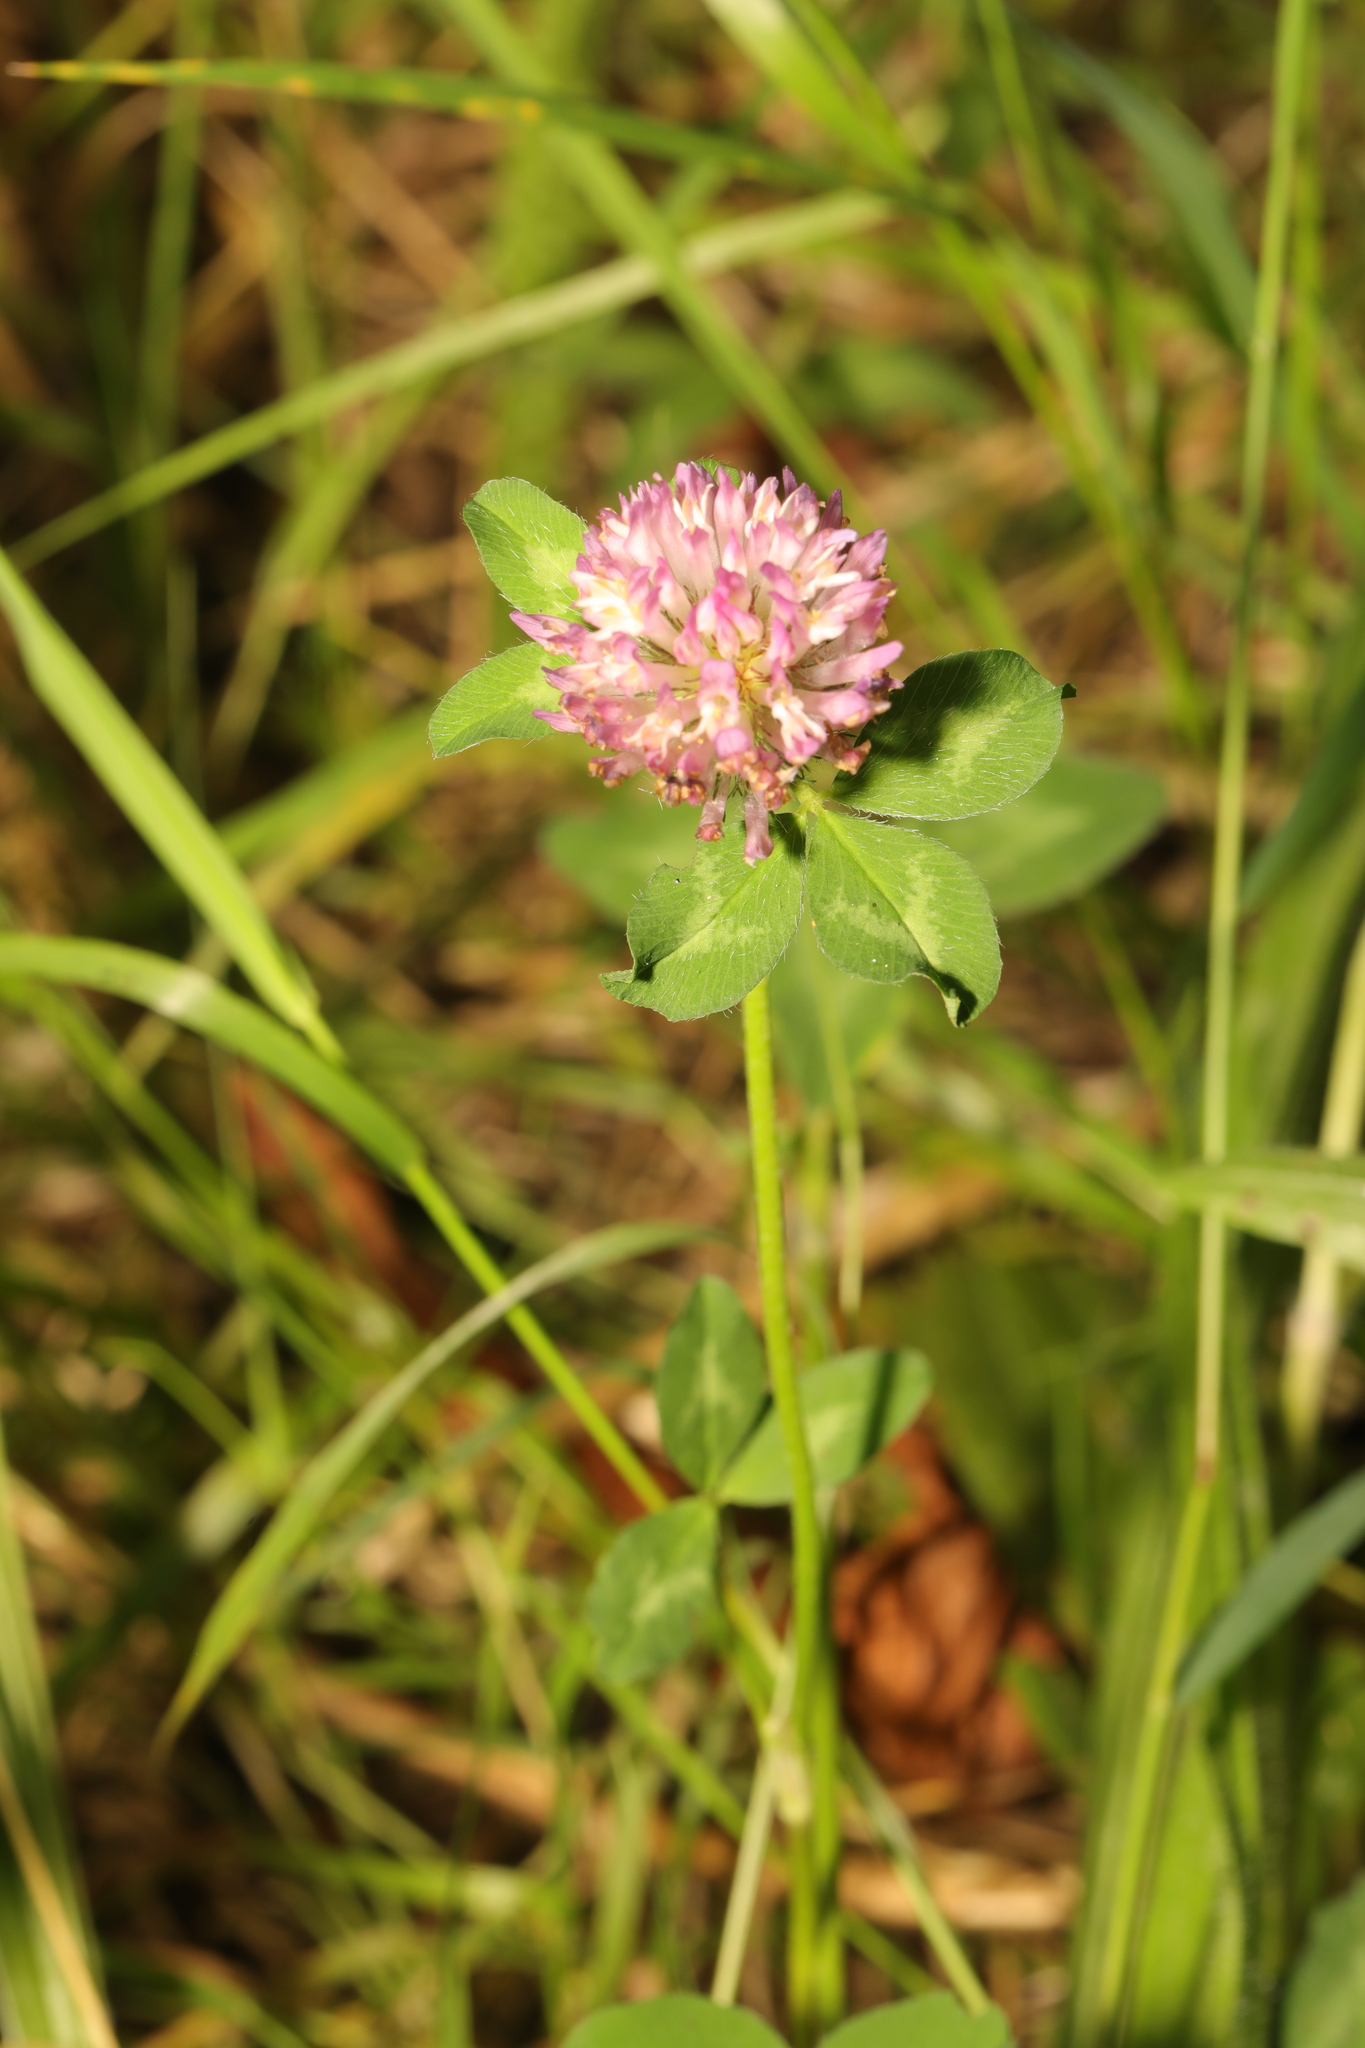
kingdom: Plantae
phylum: Tracheophyta
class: Magnoliopsida
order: Fabales
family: Fabaceae
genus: Trifolium
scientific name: Trifolium pratense
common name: Red clover
